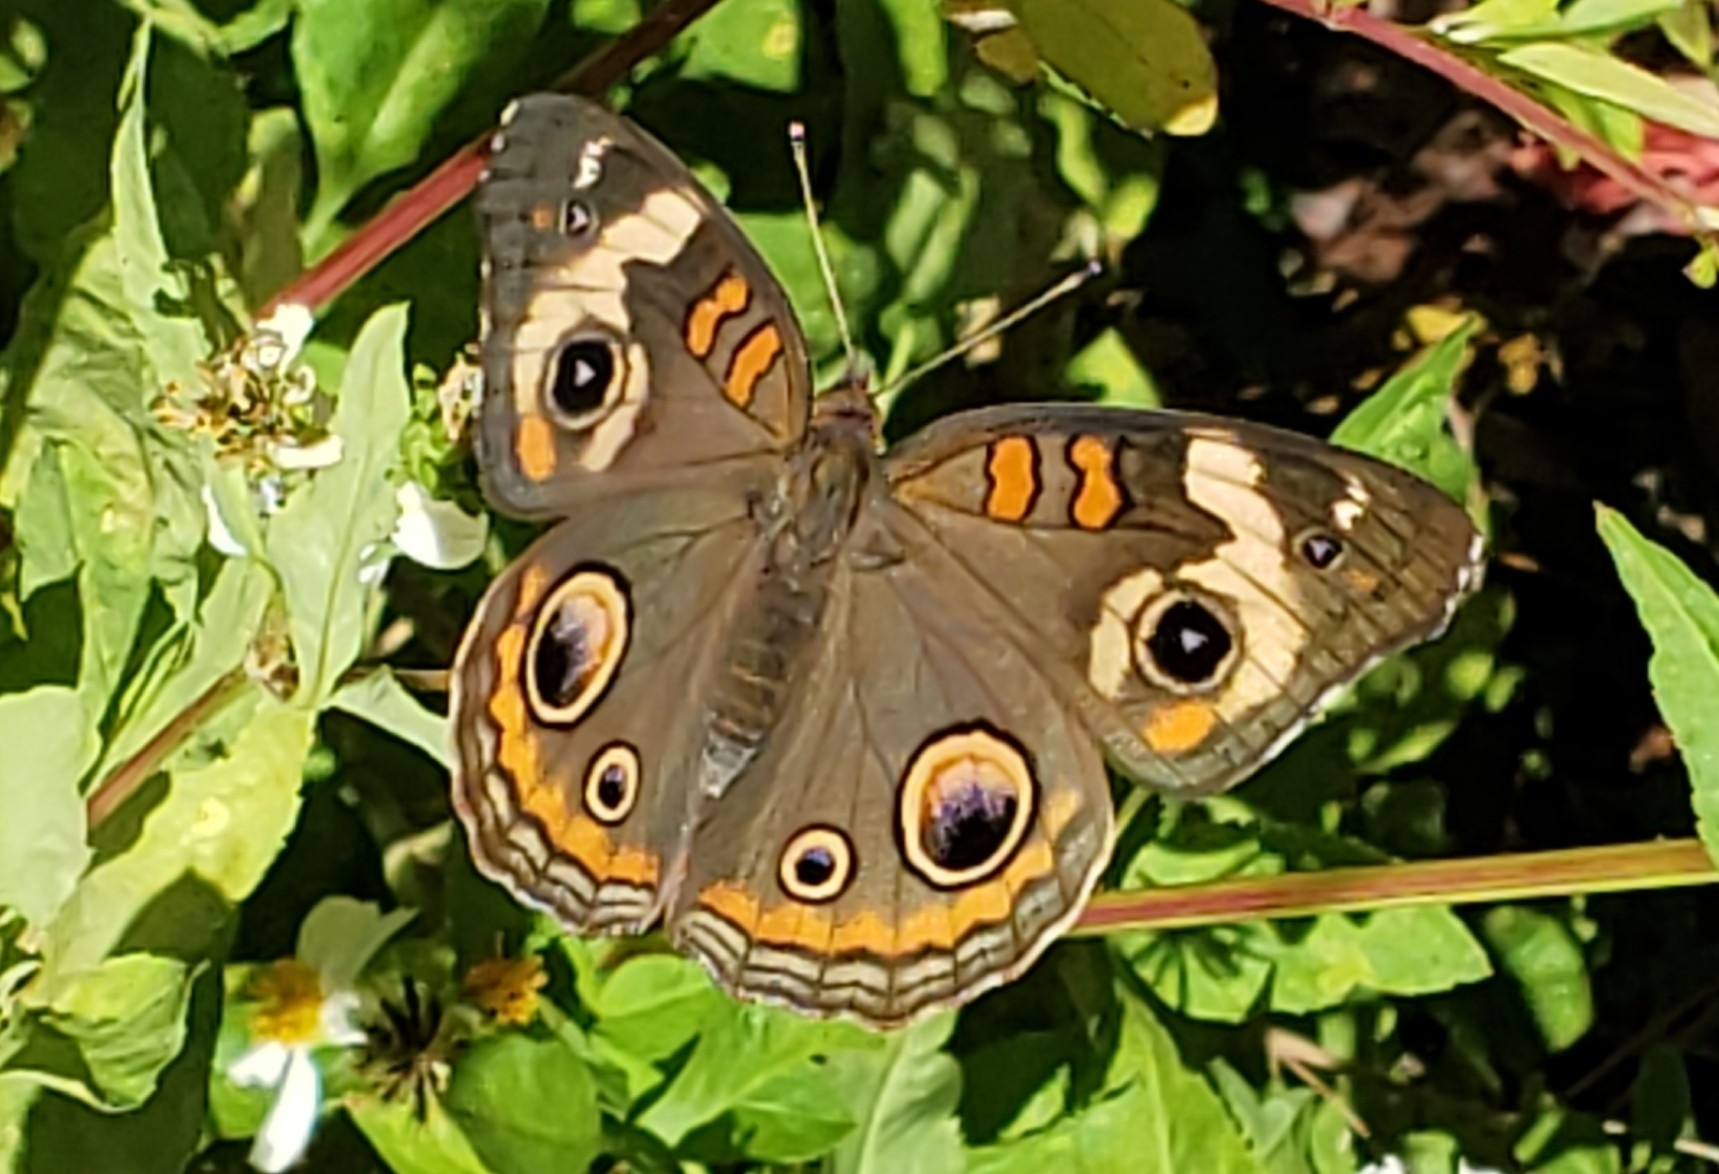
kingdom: Animalia
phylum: Arthropoda
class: Insecta
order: Lepidoptera
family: Nymphalidae
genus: Junonia
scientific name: Junonia coenia
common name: Common buckeye
